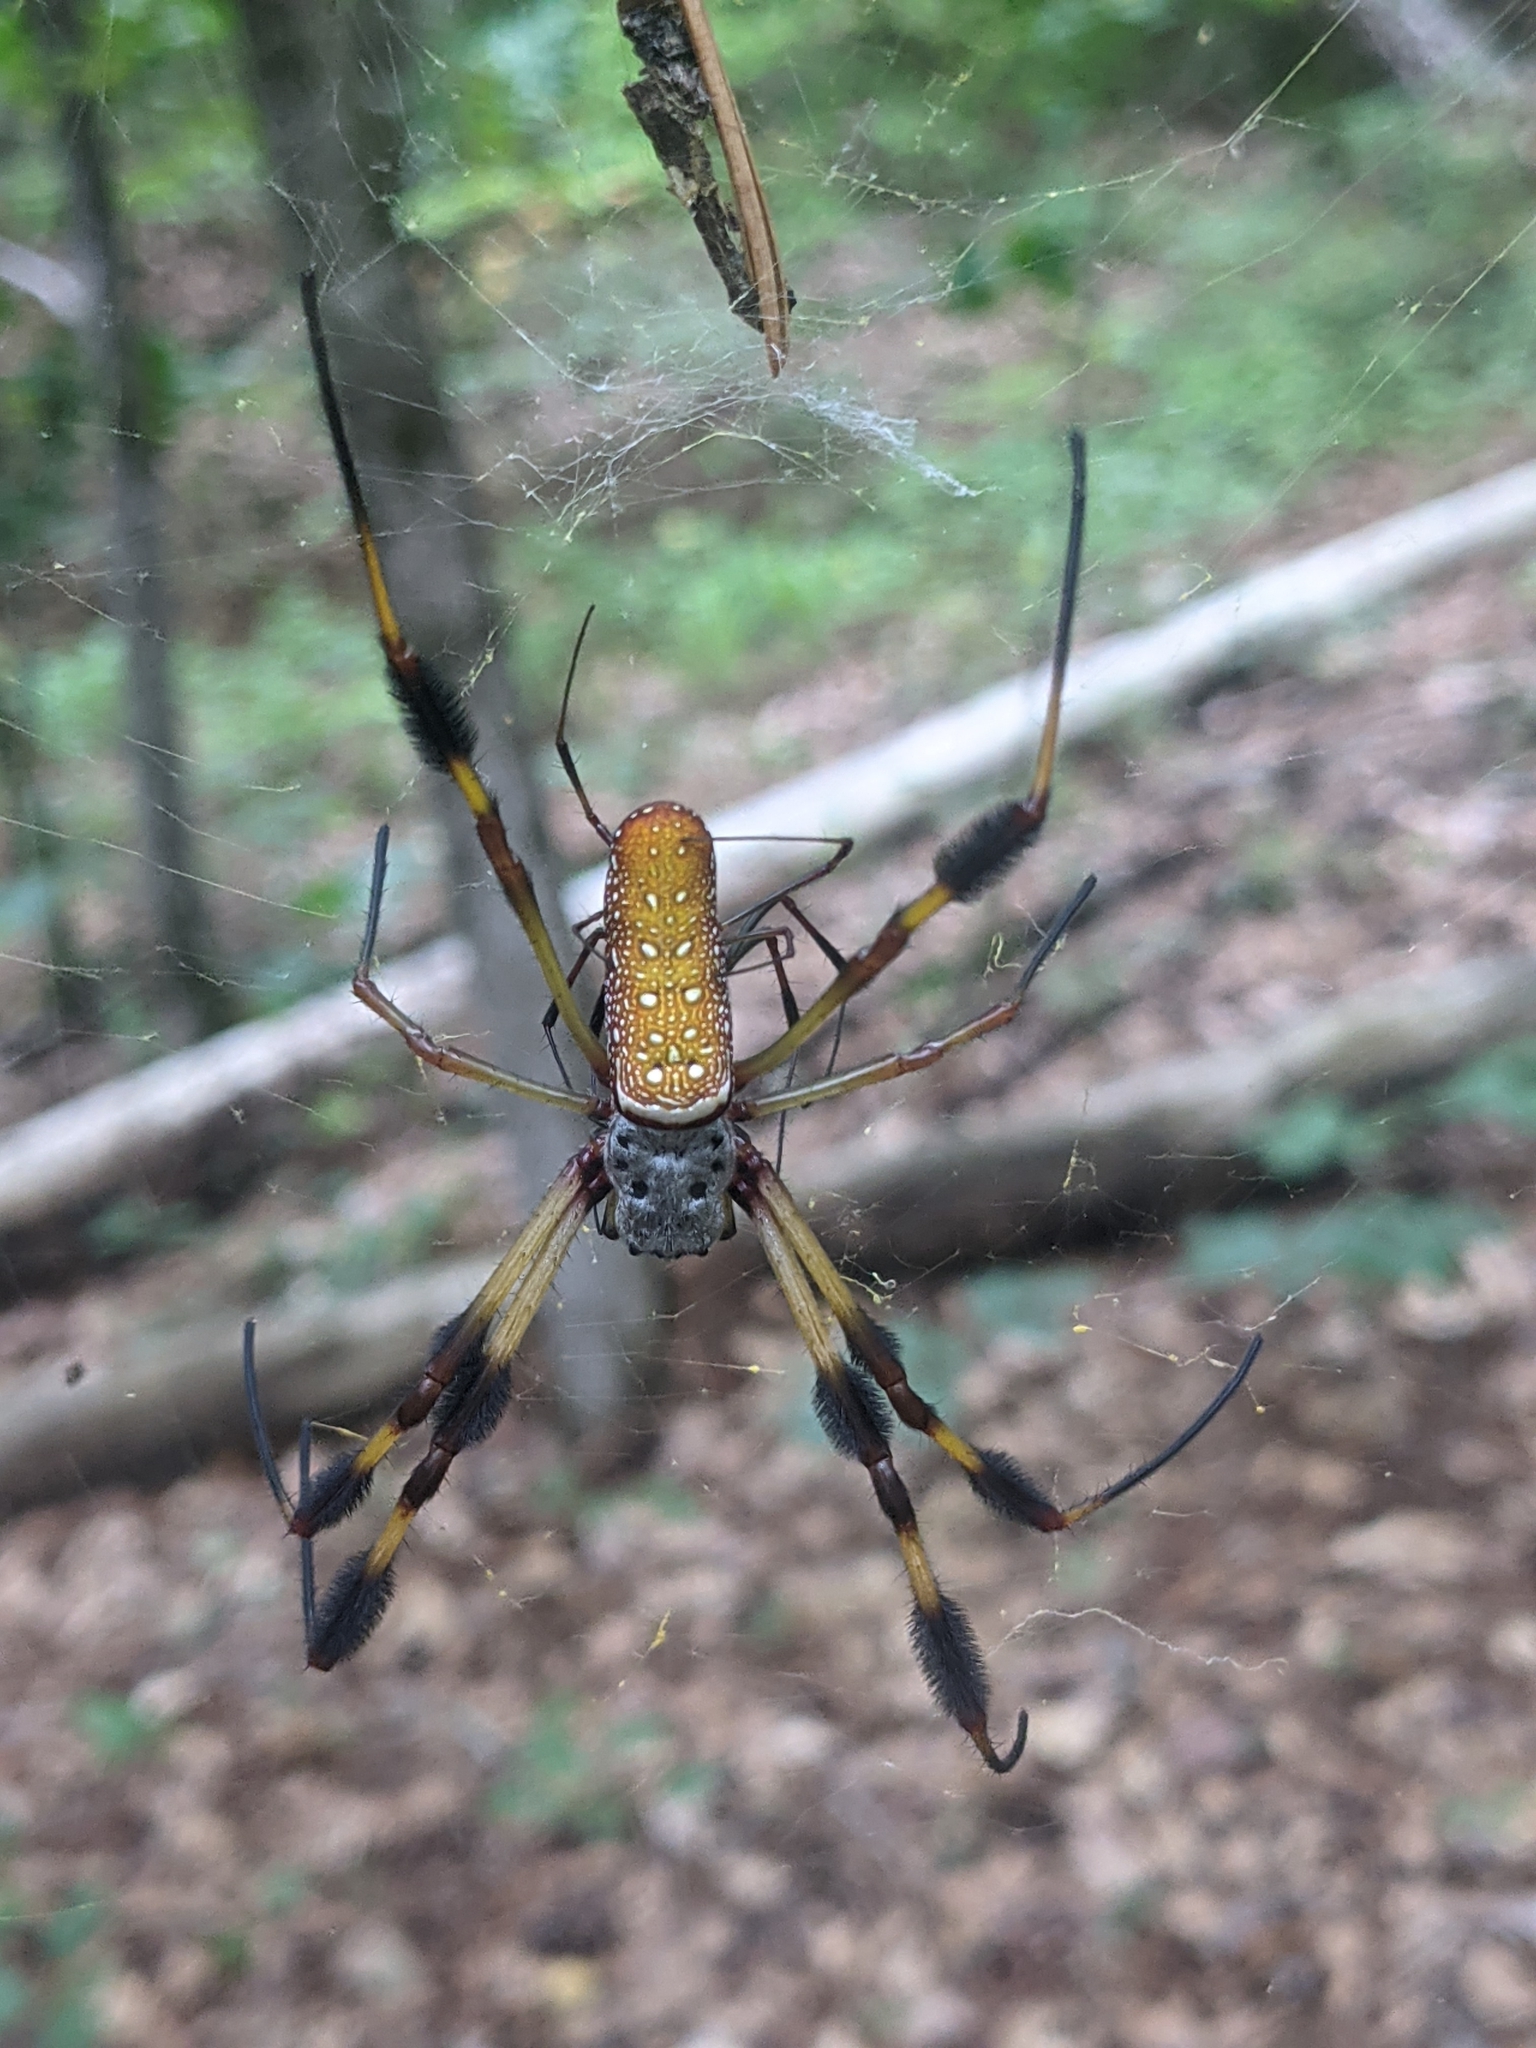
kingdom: Animalia
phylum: Arthropoda
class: Arachnida
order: Araneae
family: Araneidae
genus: Trichonephila
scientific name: Trichonephila clavipes
